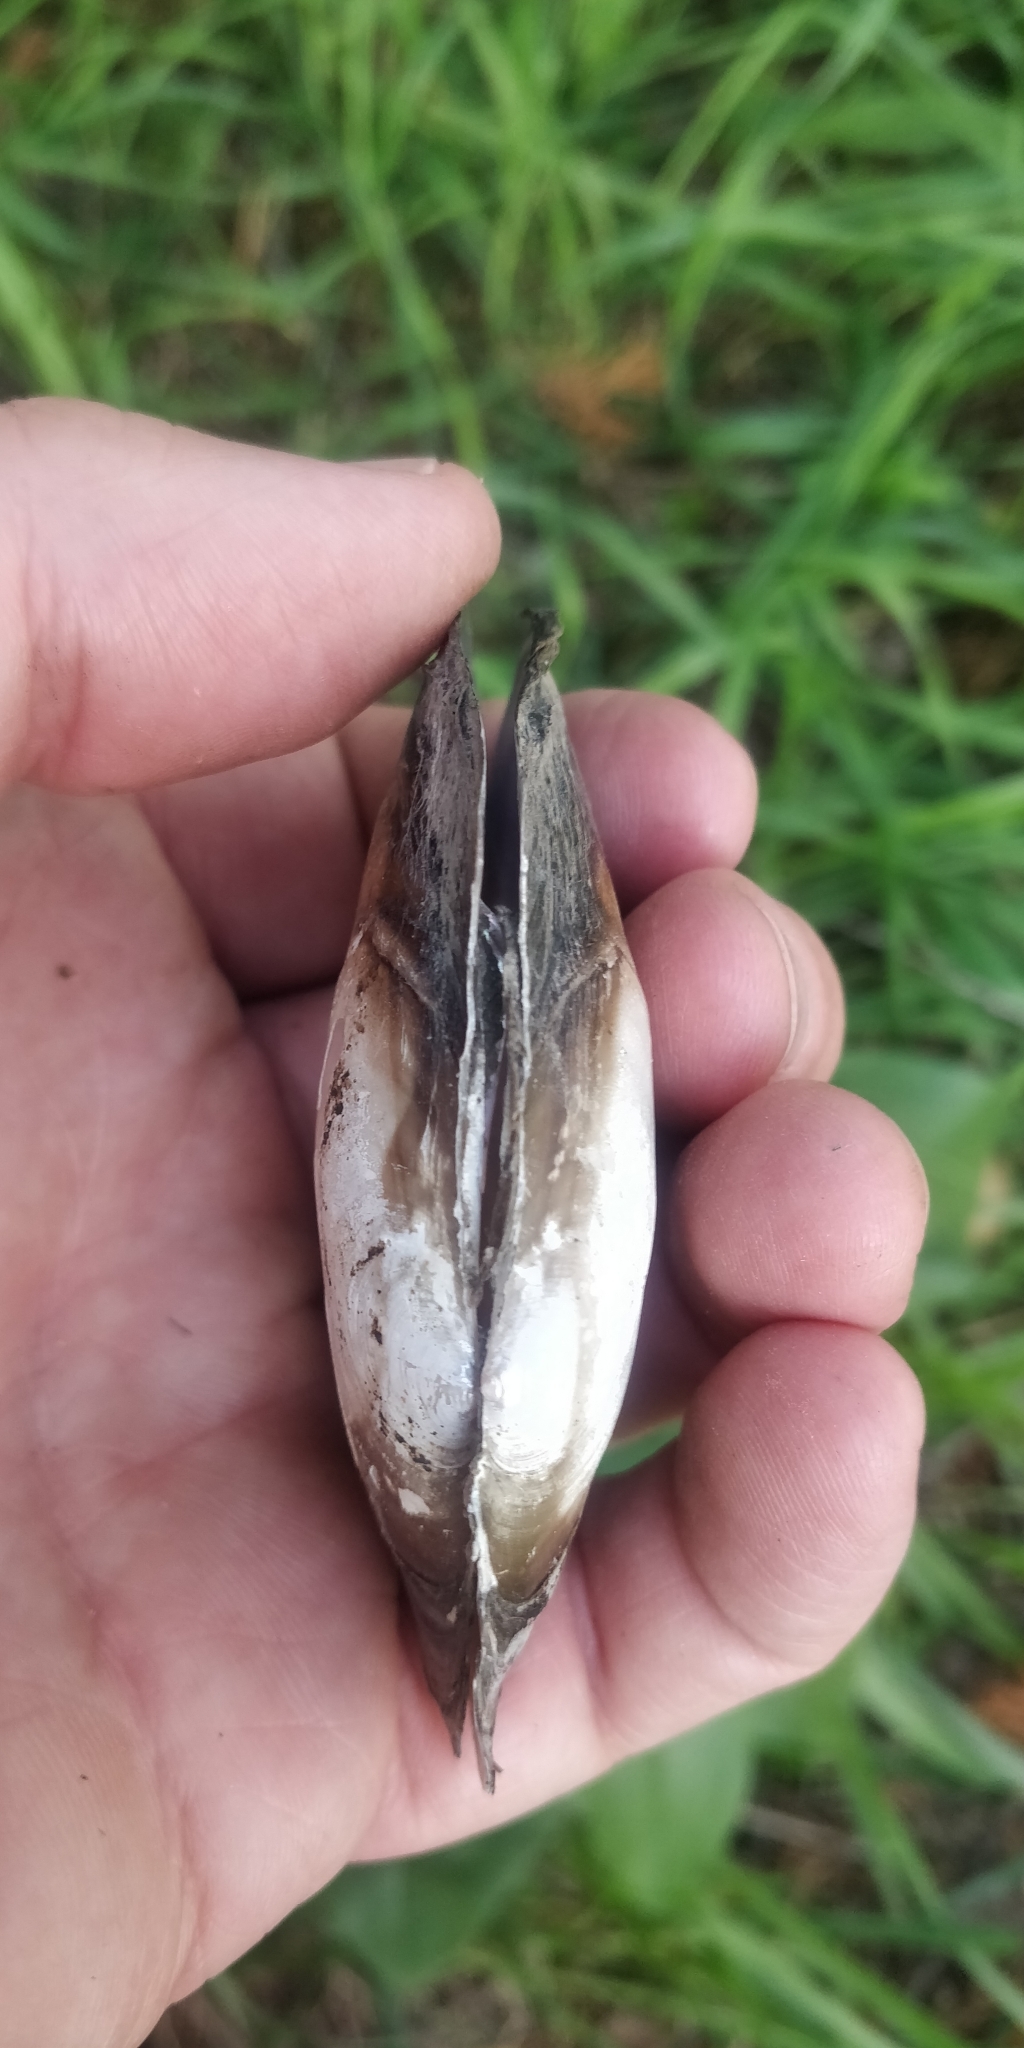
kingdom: Animalia
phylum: Mollusca
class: Bivalvia
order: Unionida
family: Unionidae
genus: Potamilus
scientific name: Potamilus ohiensis
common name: Pink papershell
